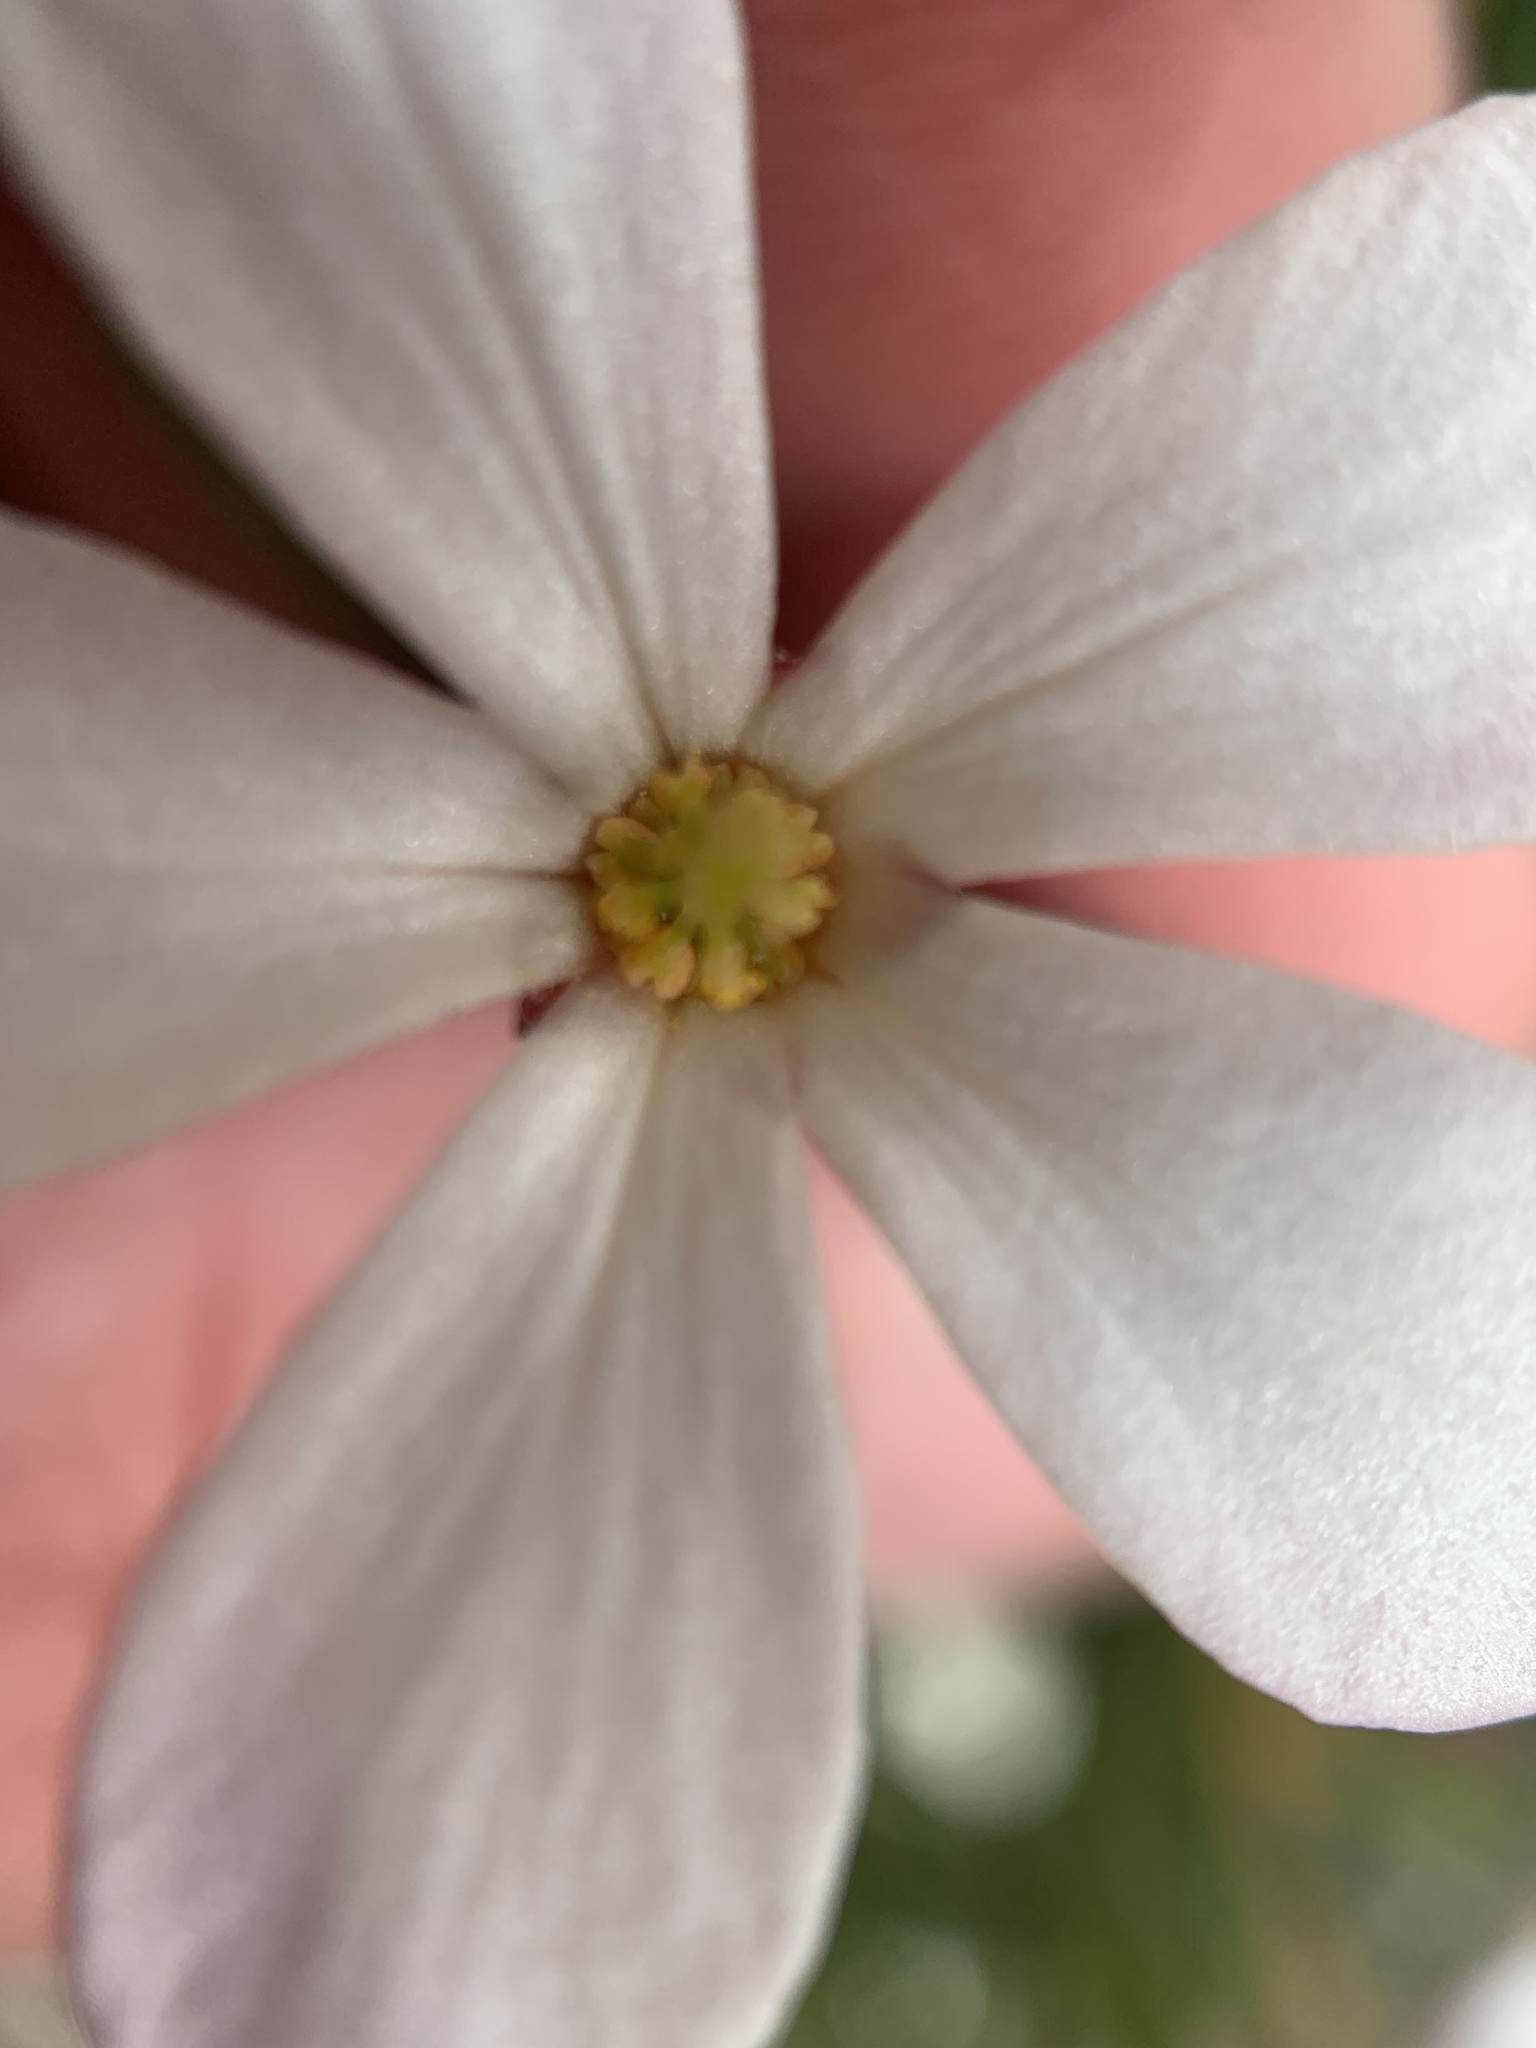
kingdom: Plantae
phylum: Tracheophyta
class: Magnoliopsida
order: Malpighiales
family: Euphorbiaceae
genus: Ricinocarpos
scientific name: Ricinocarpos pinifolius
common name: Weddingbush
